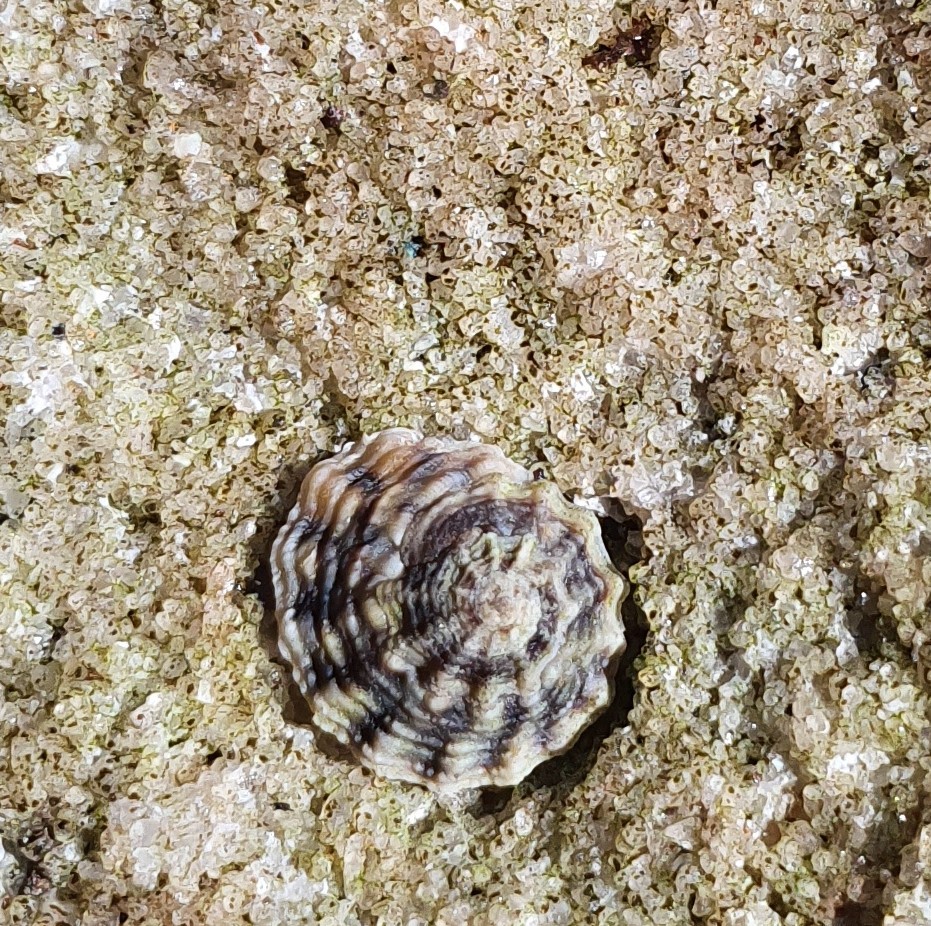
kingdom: Animalia
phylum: Mollusca
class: Gastropoda
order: Littorinimorpha
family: Littorinidae
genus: Bembicium
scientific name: Bembicium nanum
